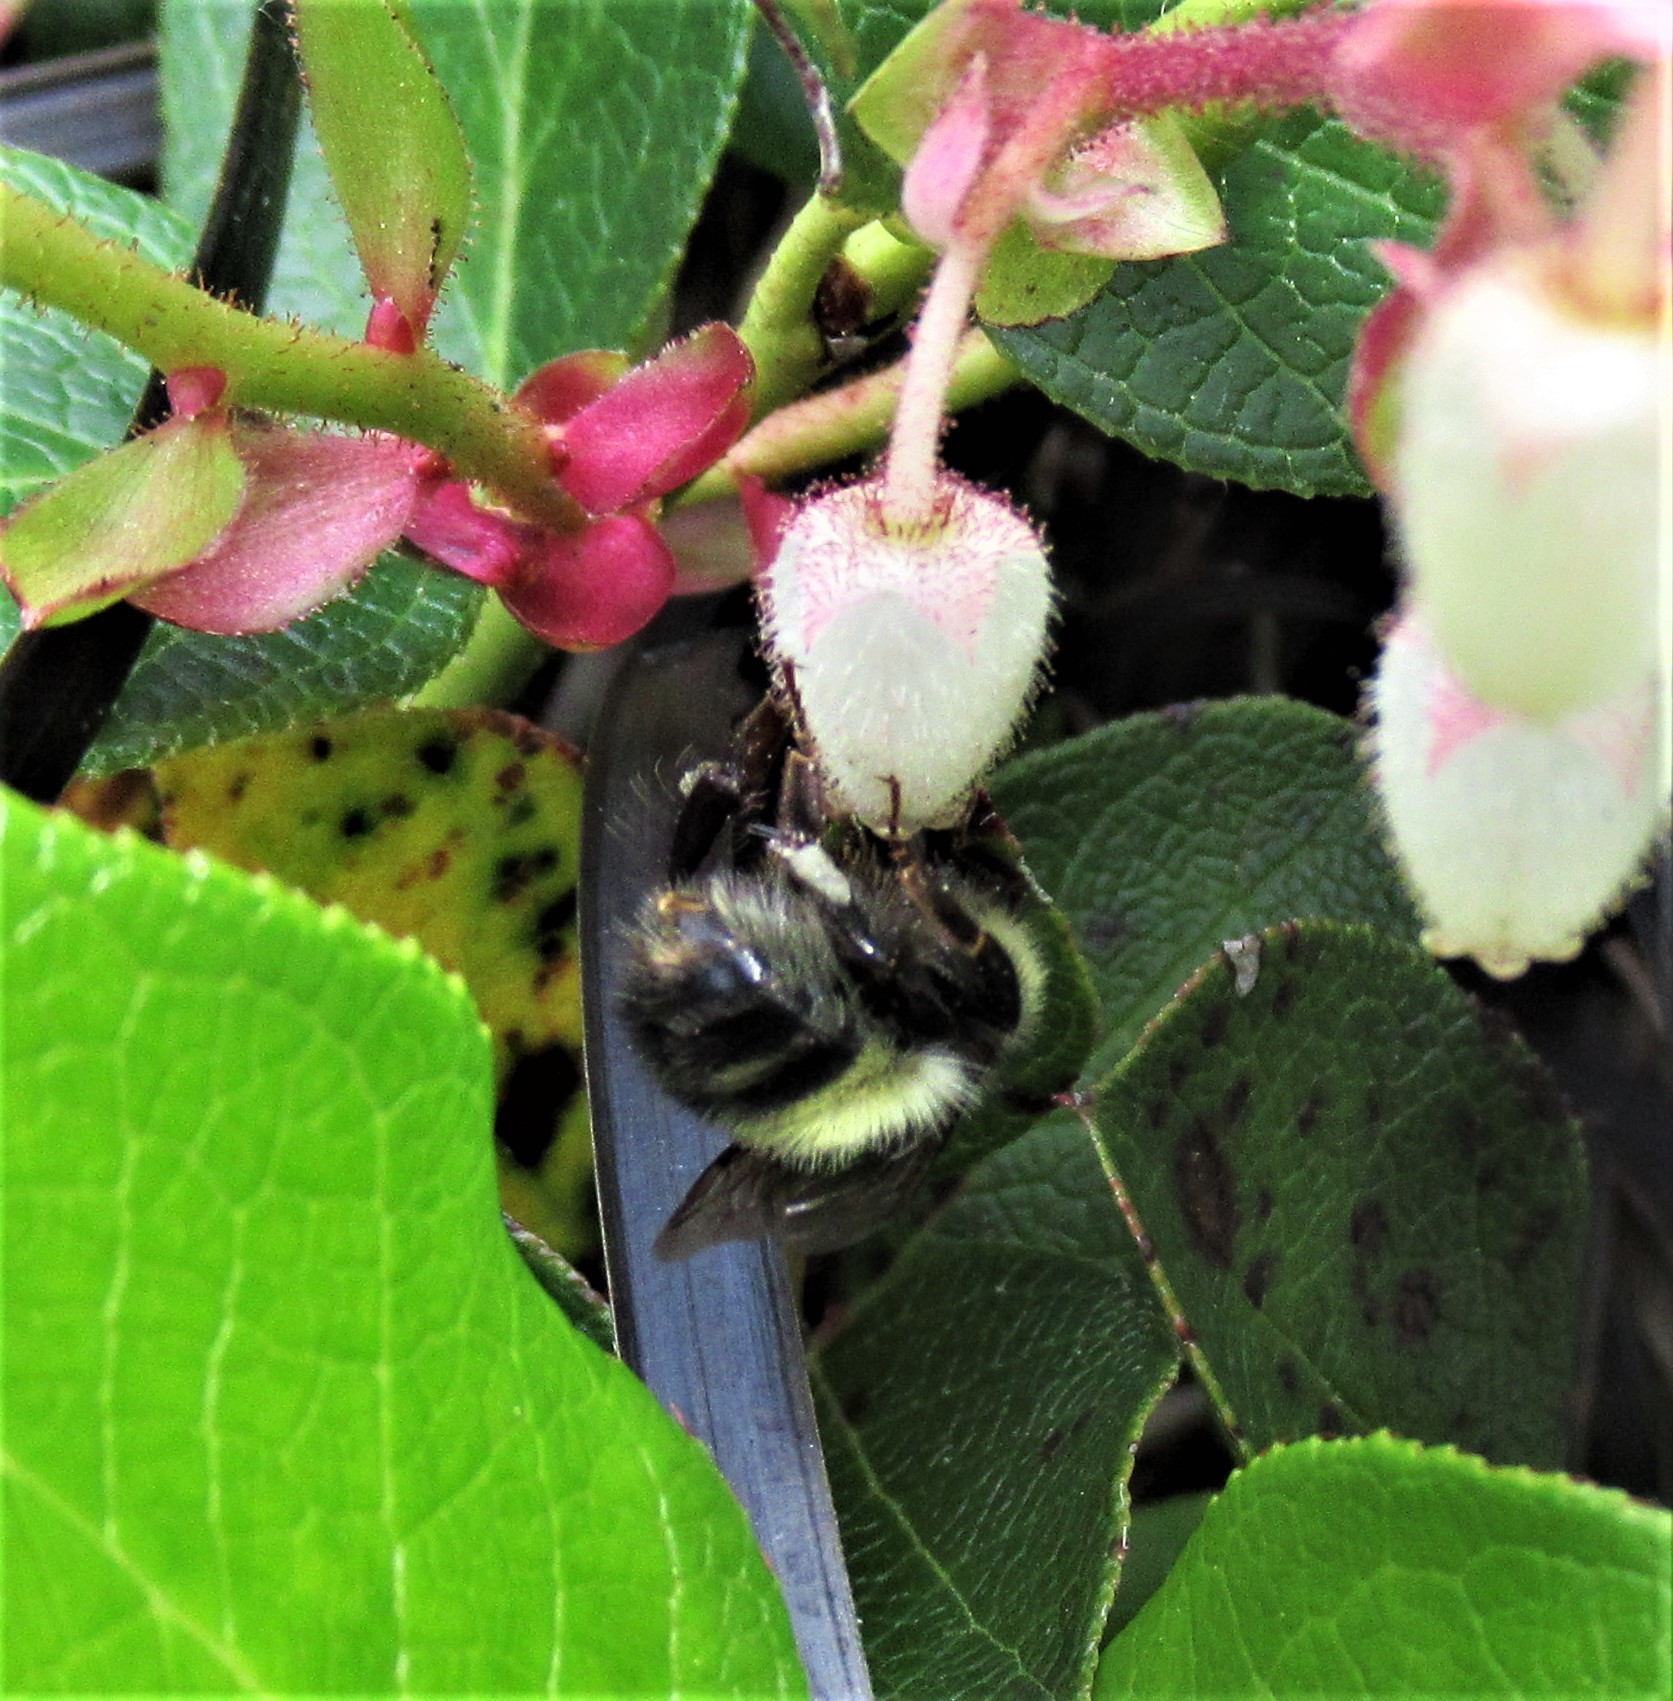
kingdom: Animalia
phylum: Arthropoda
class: Insecta
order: Hymenoptera
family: Apidae
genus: Bombus
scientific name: Bombus flavifrons
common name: Yellow head bumble bee
